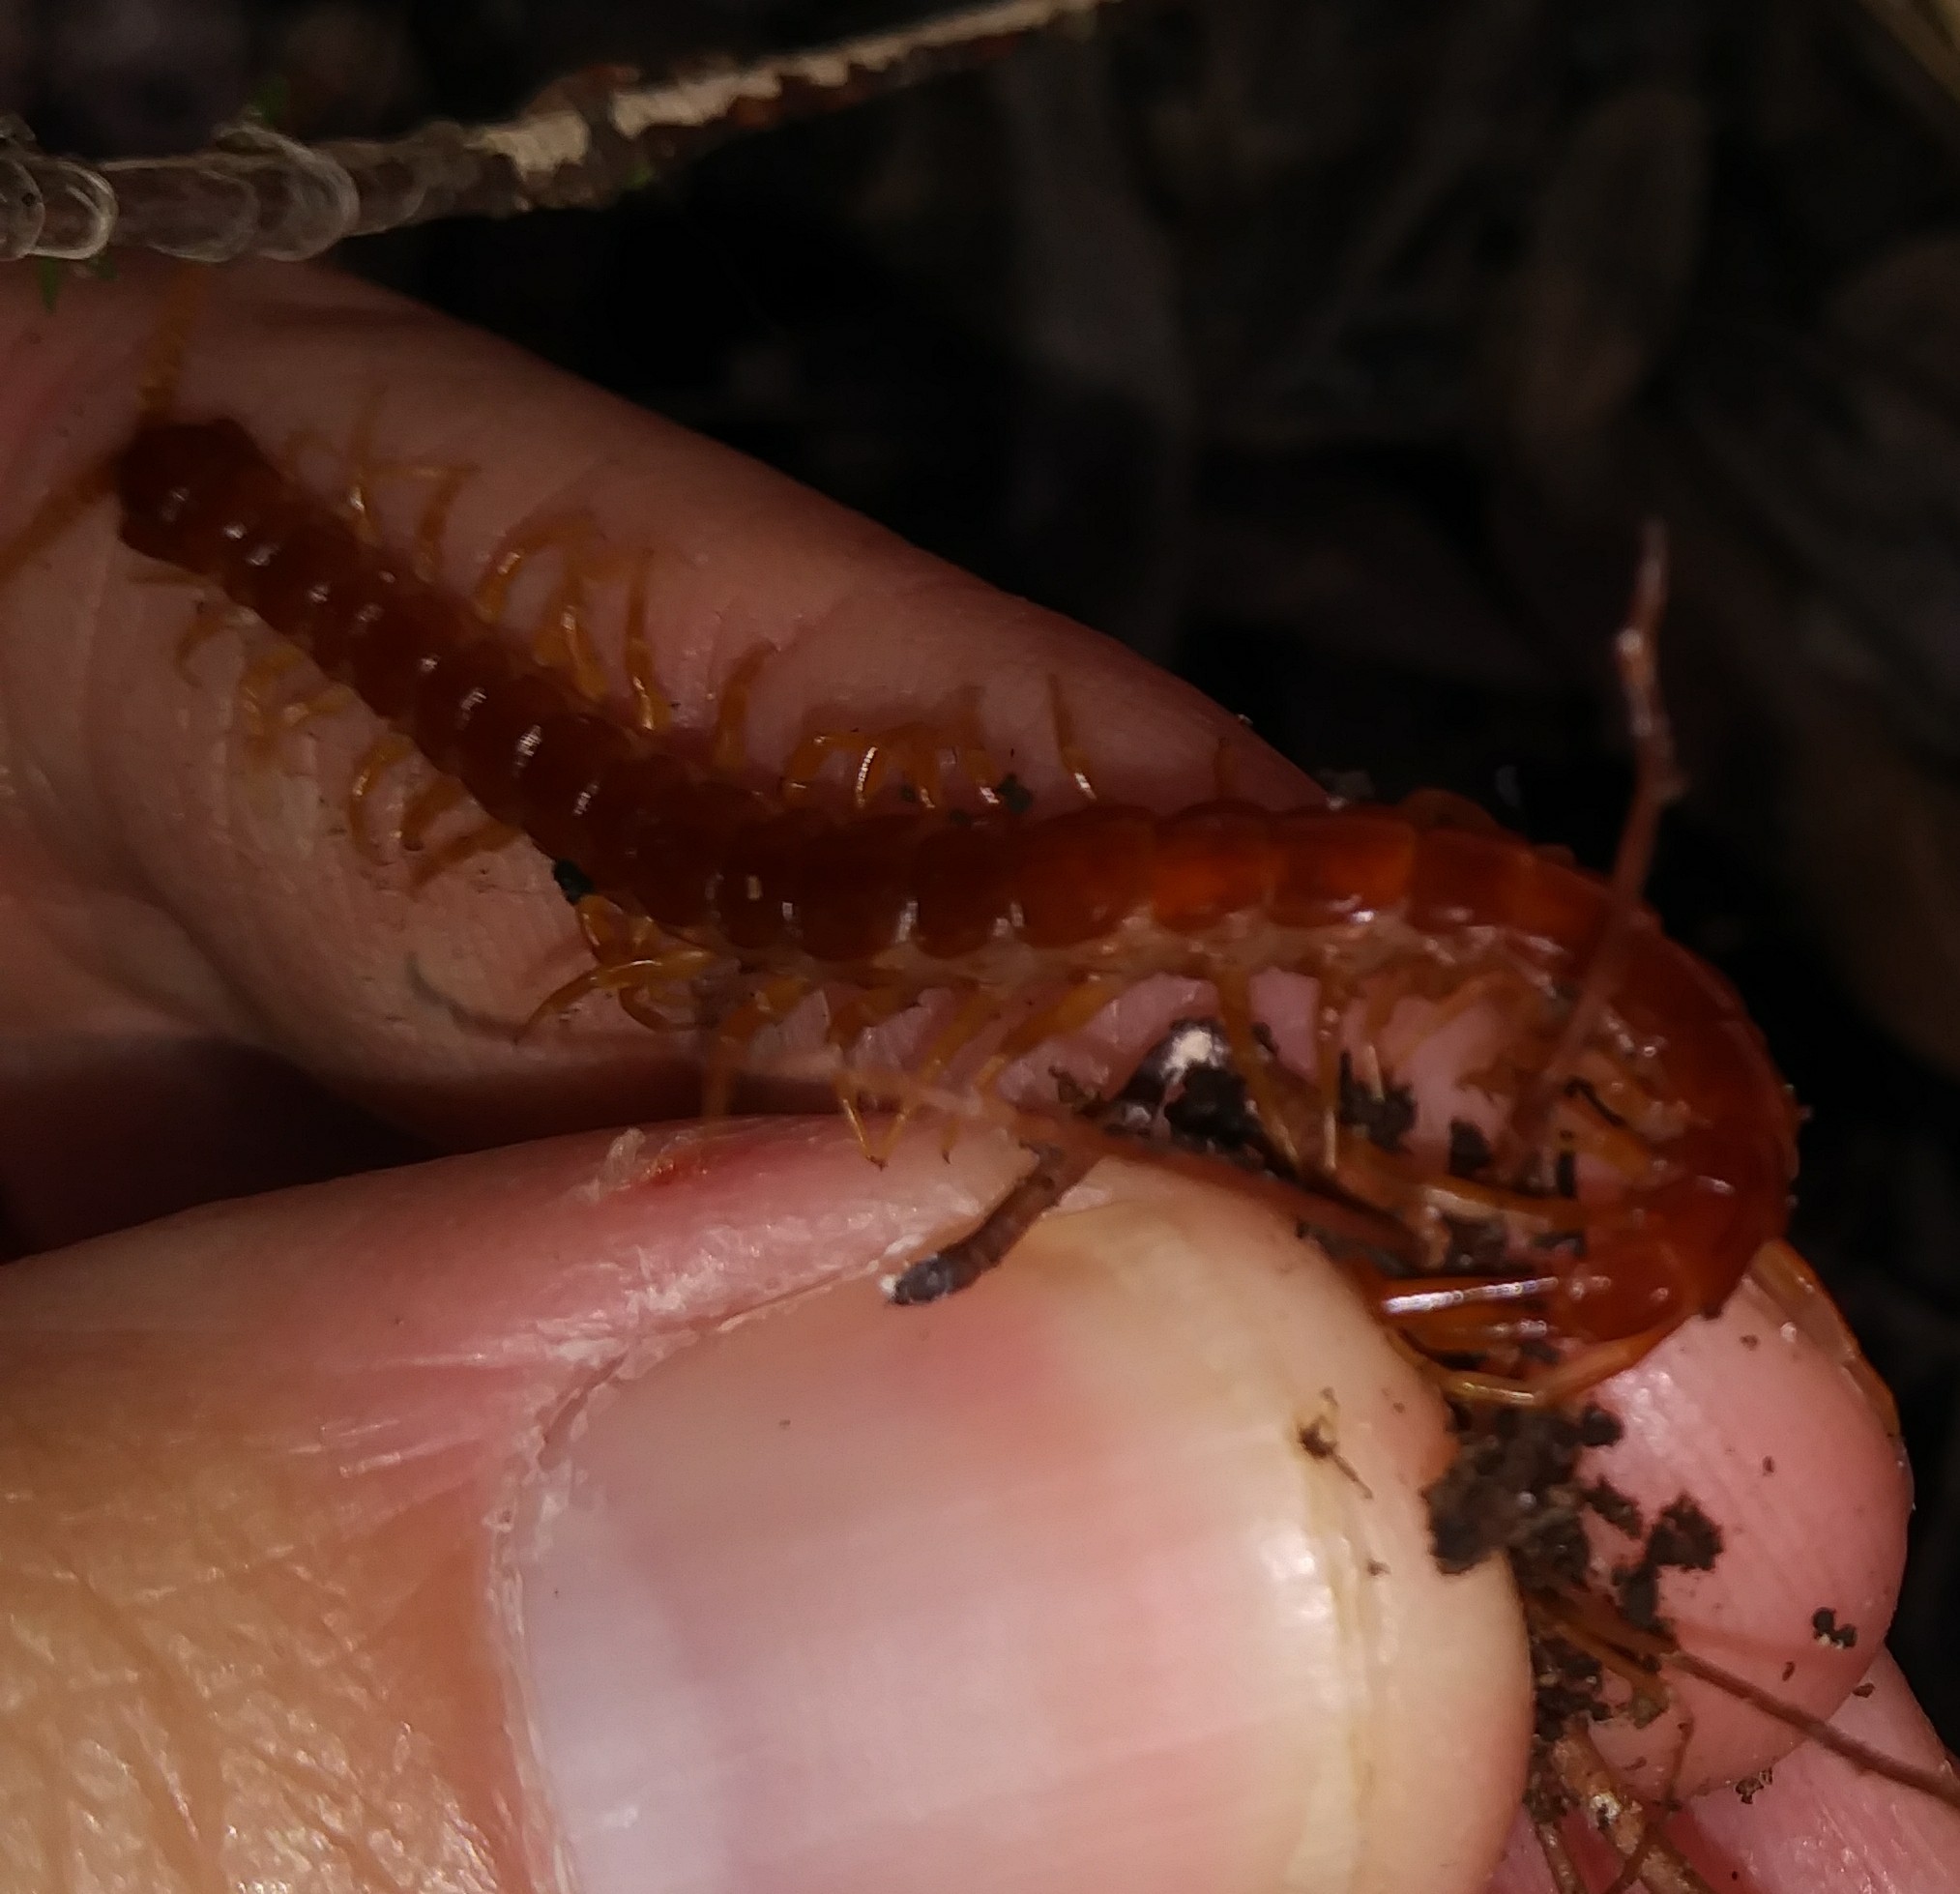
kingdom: Animalia
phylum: Arthropoda
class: Chilopoda
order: Scolopendromorpha
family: Scolopocryptopidae
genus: Scolopocryptops
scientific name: Scolopocryptops sexspinosus
